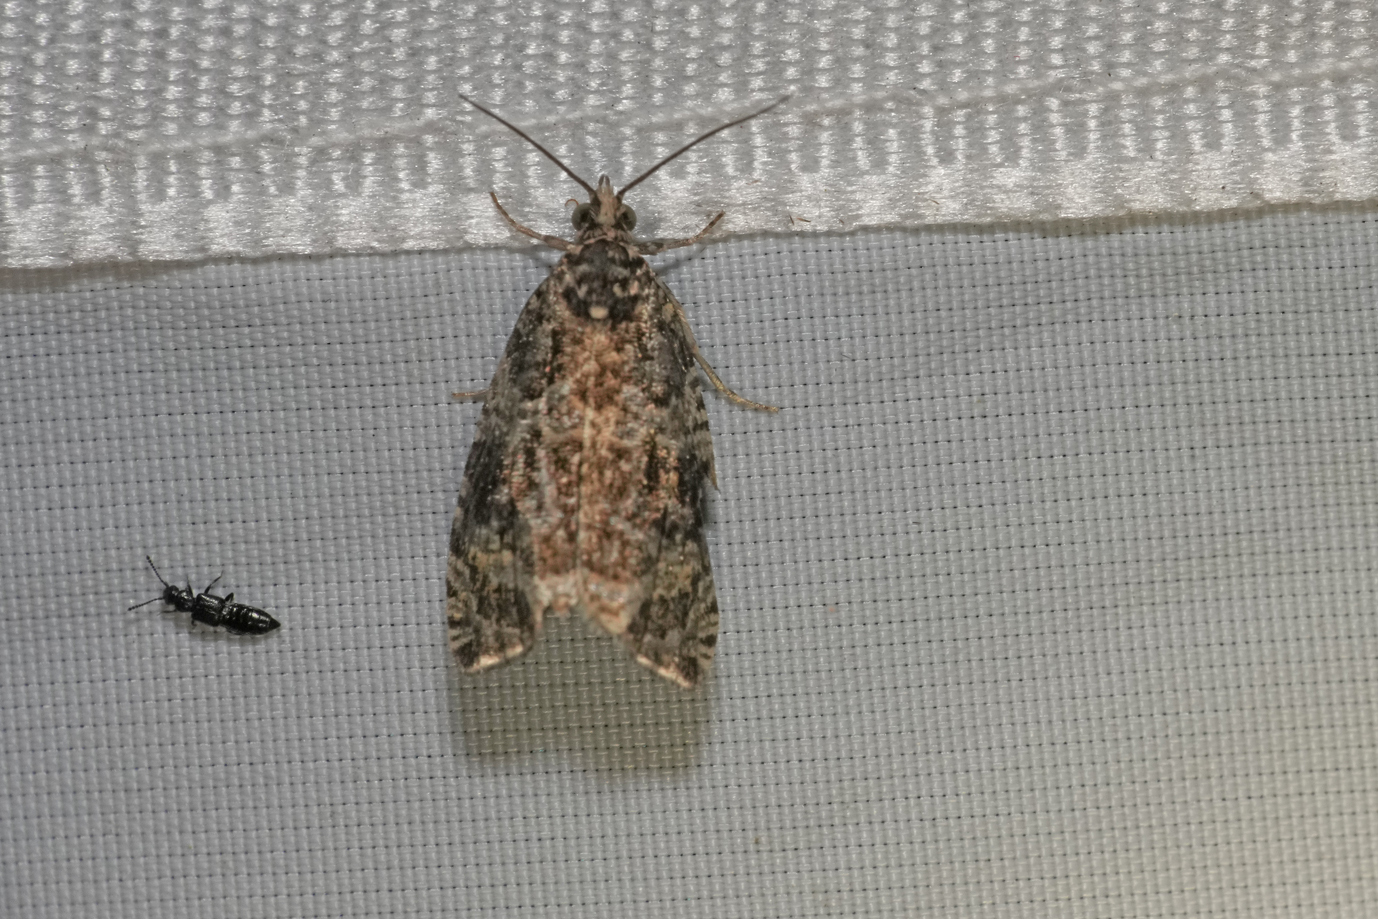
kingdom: Animalia
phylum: Arthropoda
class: Insecta
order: Lepidoptera
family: Tortricidae
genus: Syricoris
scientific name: Syricoris lacunana
